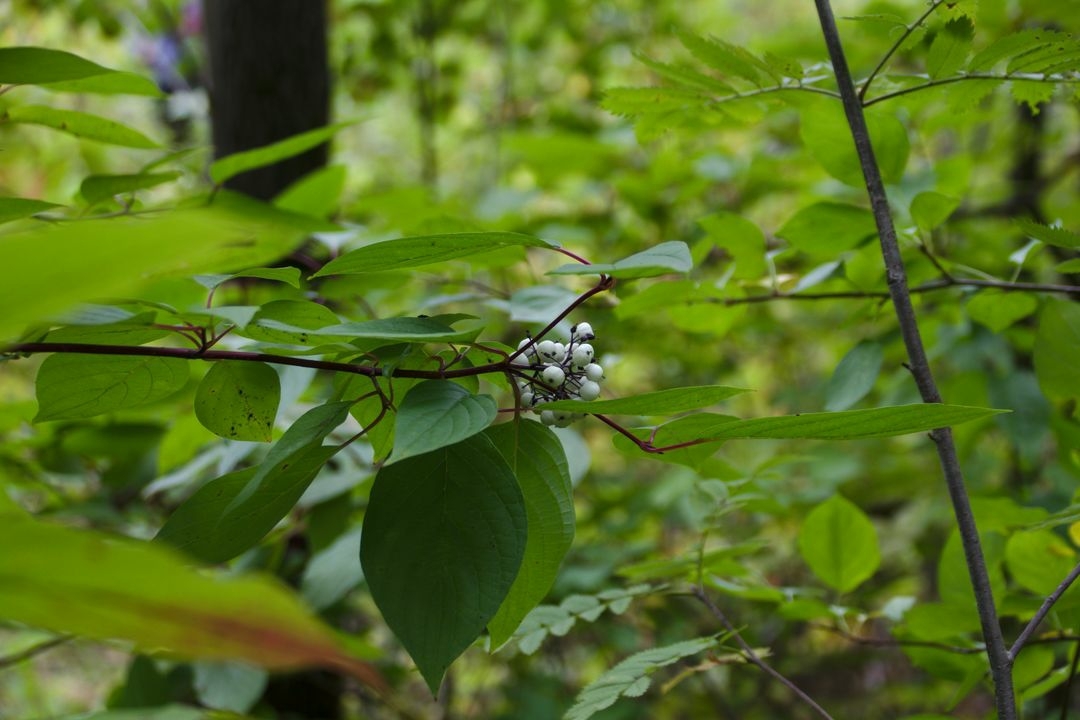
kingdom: Plantae
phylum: Tracheophyta
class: Magnoliopsida
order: Cornales
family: Cornaceae
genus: Cornus
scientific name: Cornus alba
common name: White dogwood
